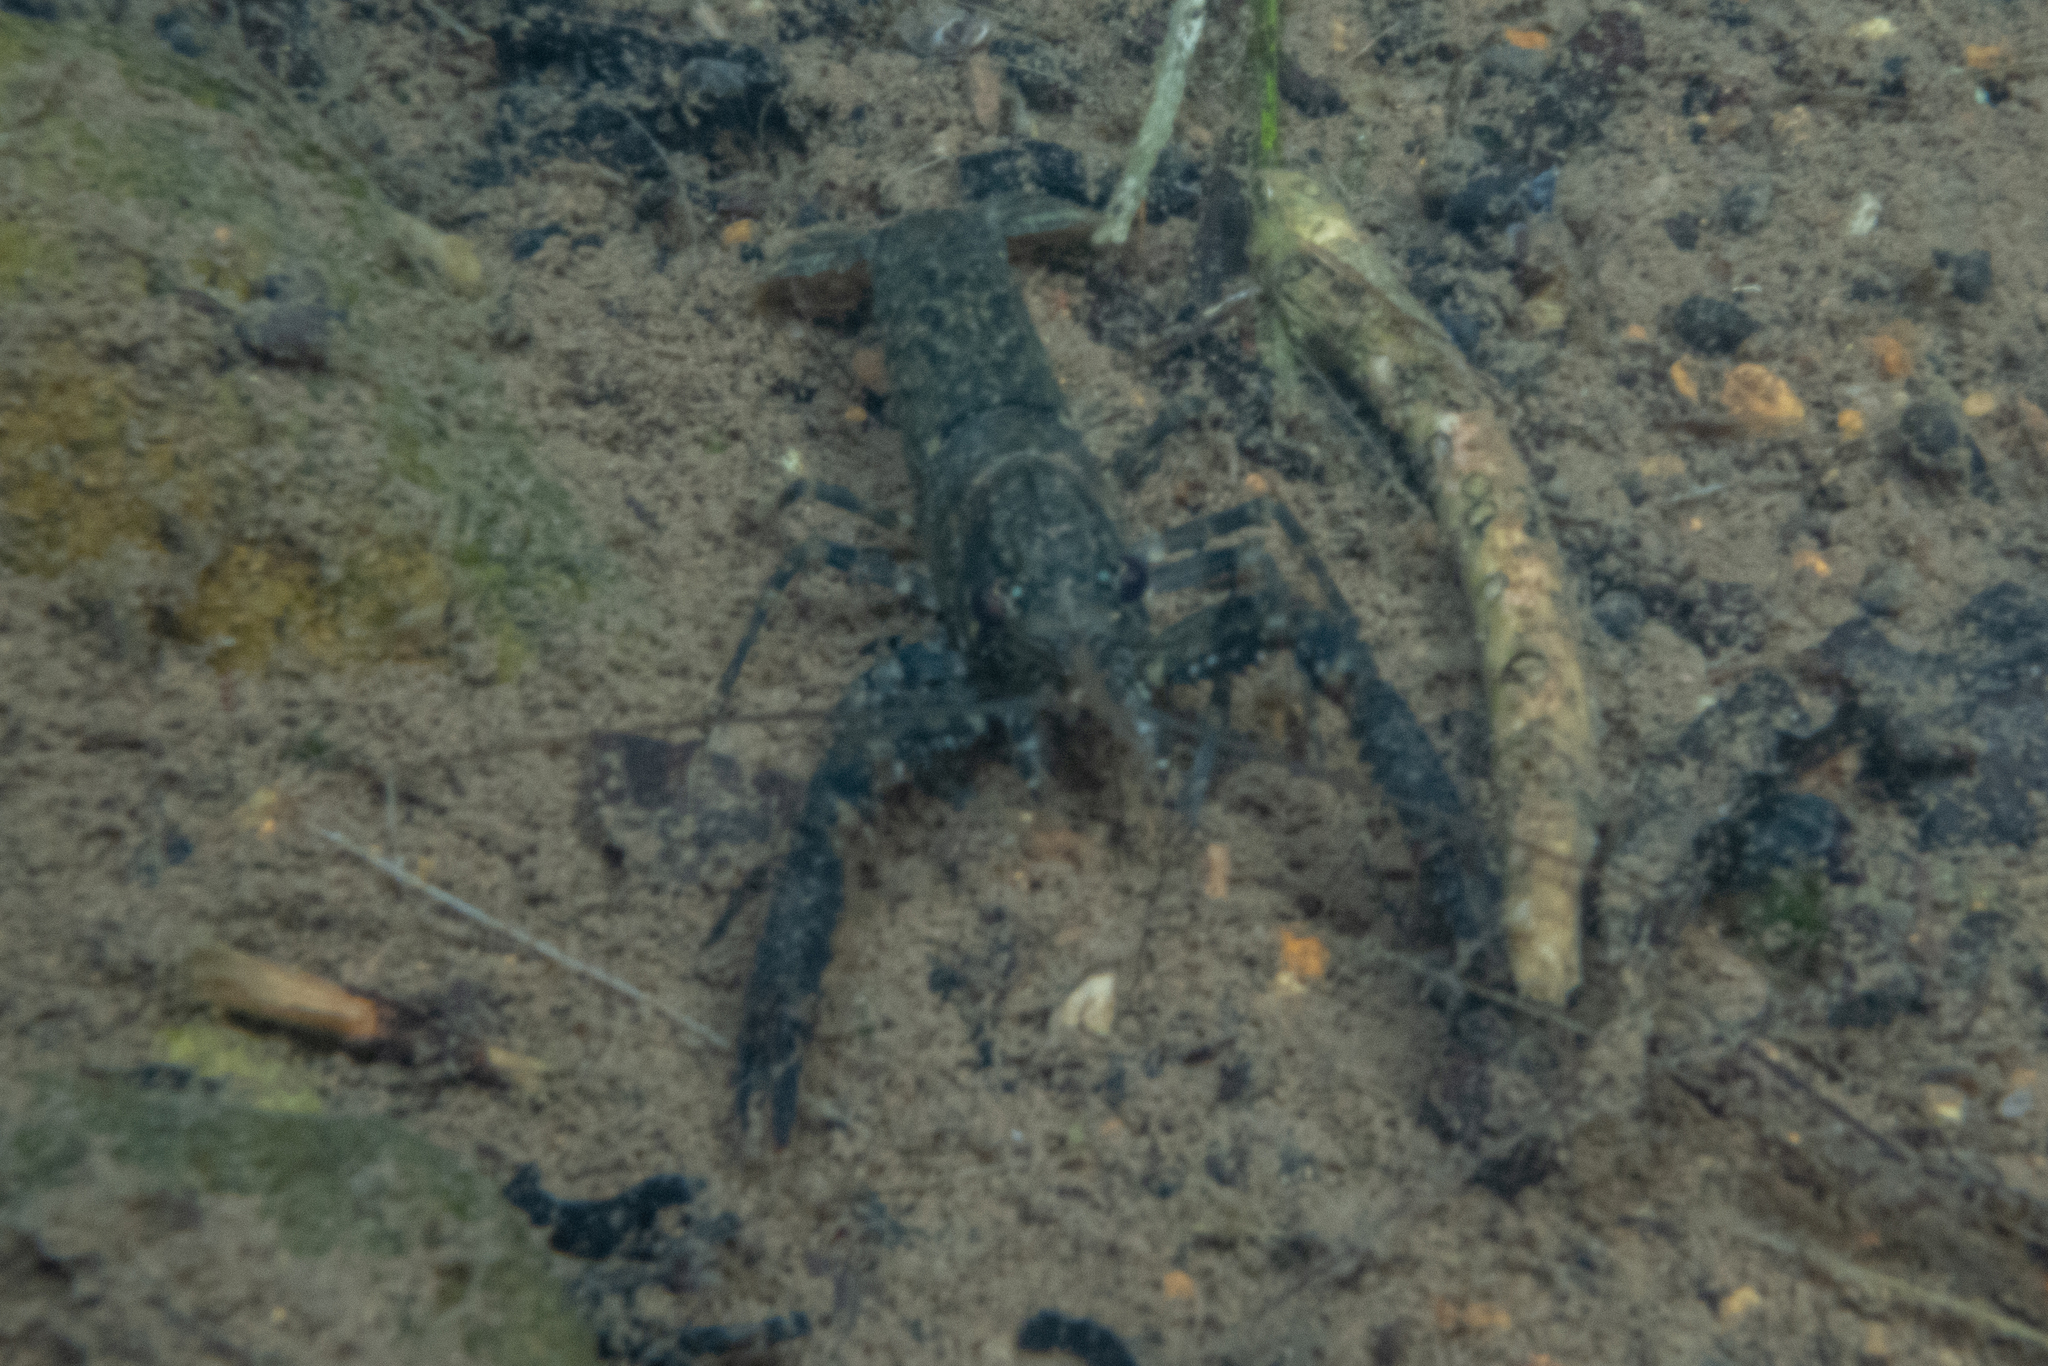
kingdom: Animalia
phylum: Arthropoda
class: Malacostraca
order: Decapoda
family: Parastacidae
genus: Paranephrops
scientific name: Paranephrops planifrons
